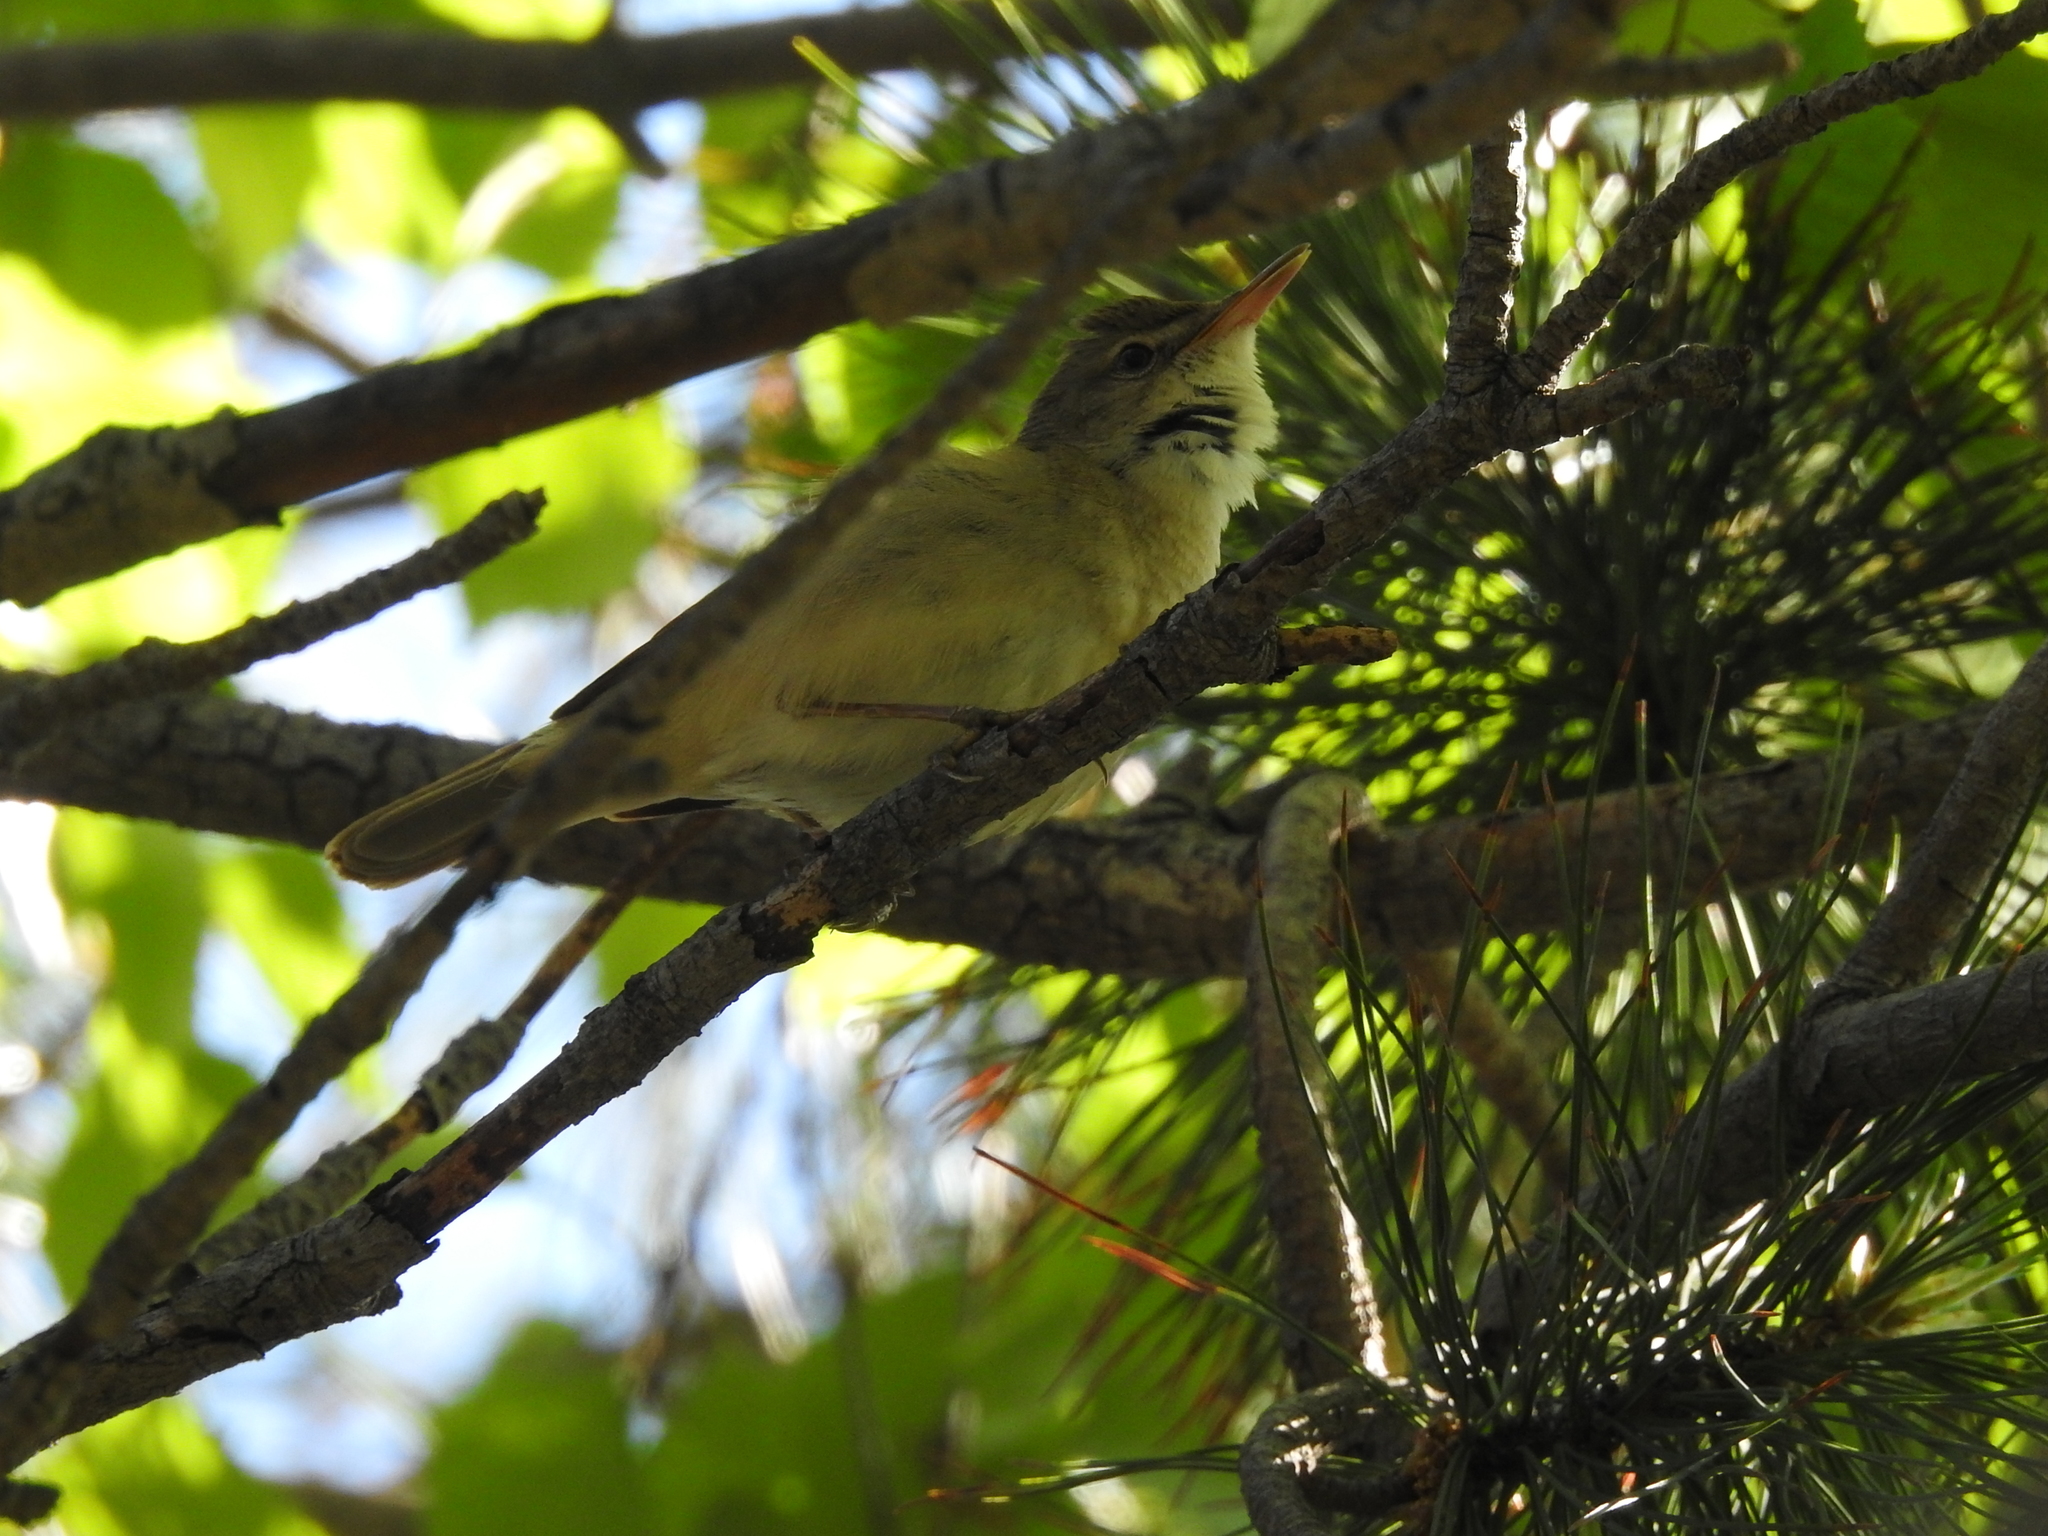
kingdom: Animalia
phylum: Chordata
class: Aves
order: Passeriformes
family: Acrocephalidae
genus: Acrocephalus
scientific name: Acrocephalus dumetorum
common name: Blyth's reed warbler
